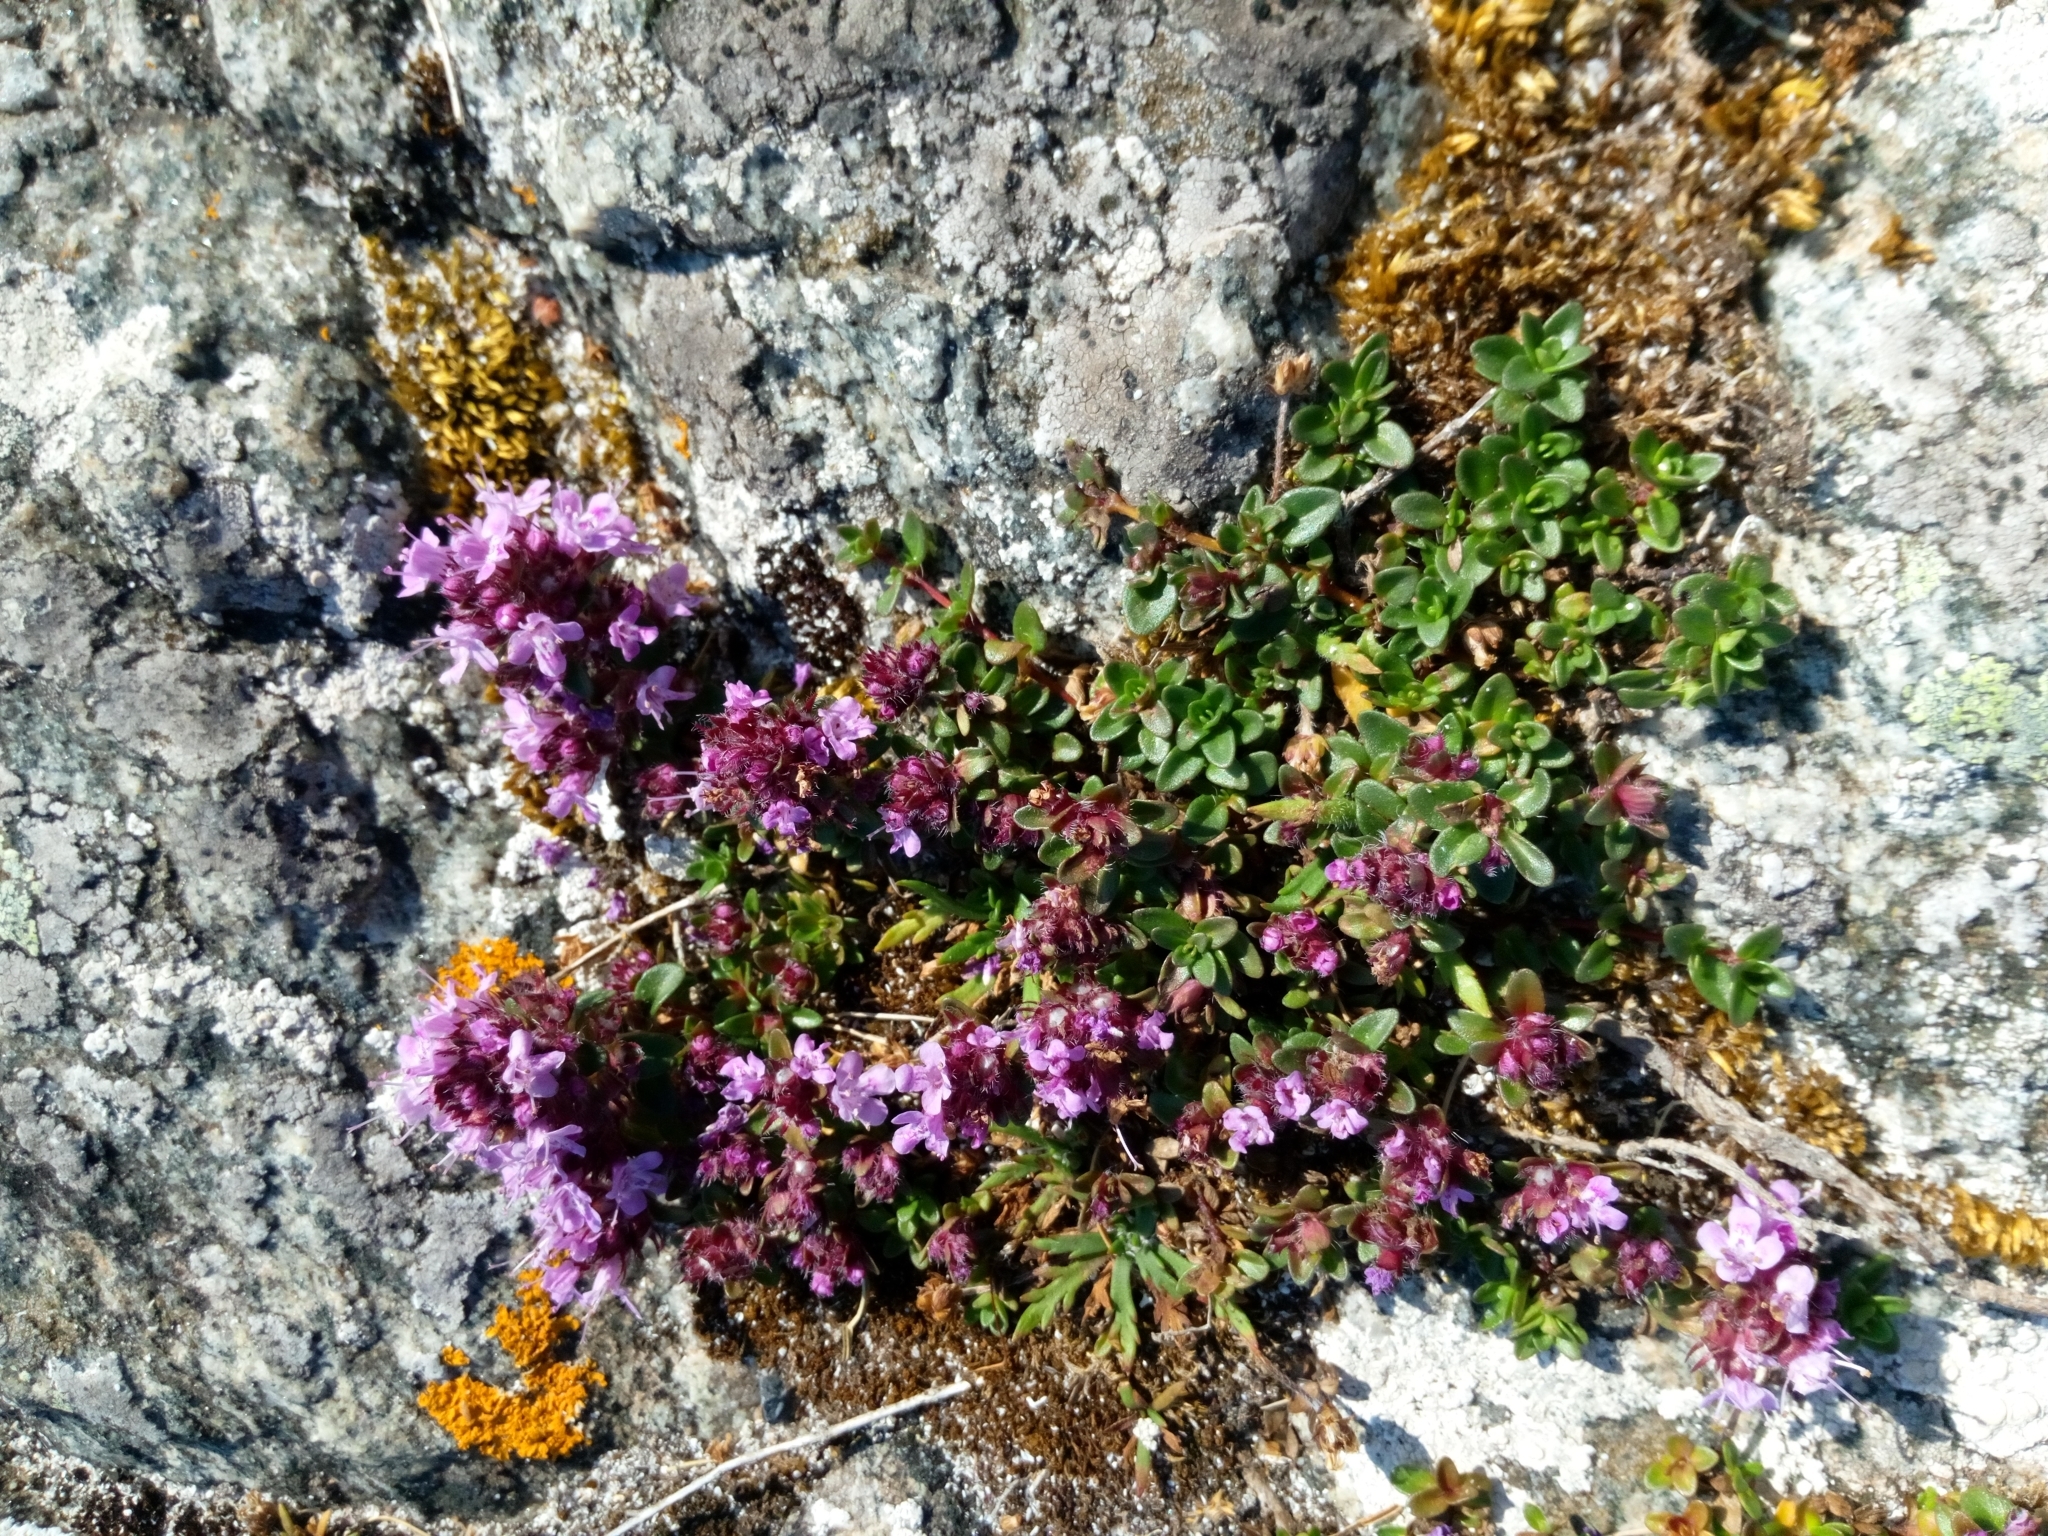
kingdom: Plantae
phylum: Tracheophyta
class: Magnoliopsida
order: Lamiales
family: Lamiaceae
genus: Thymus
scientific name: Thymus praecox
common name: Wild thyme
